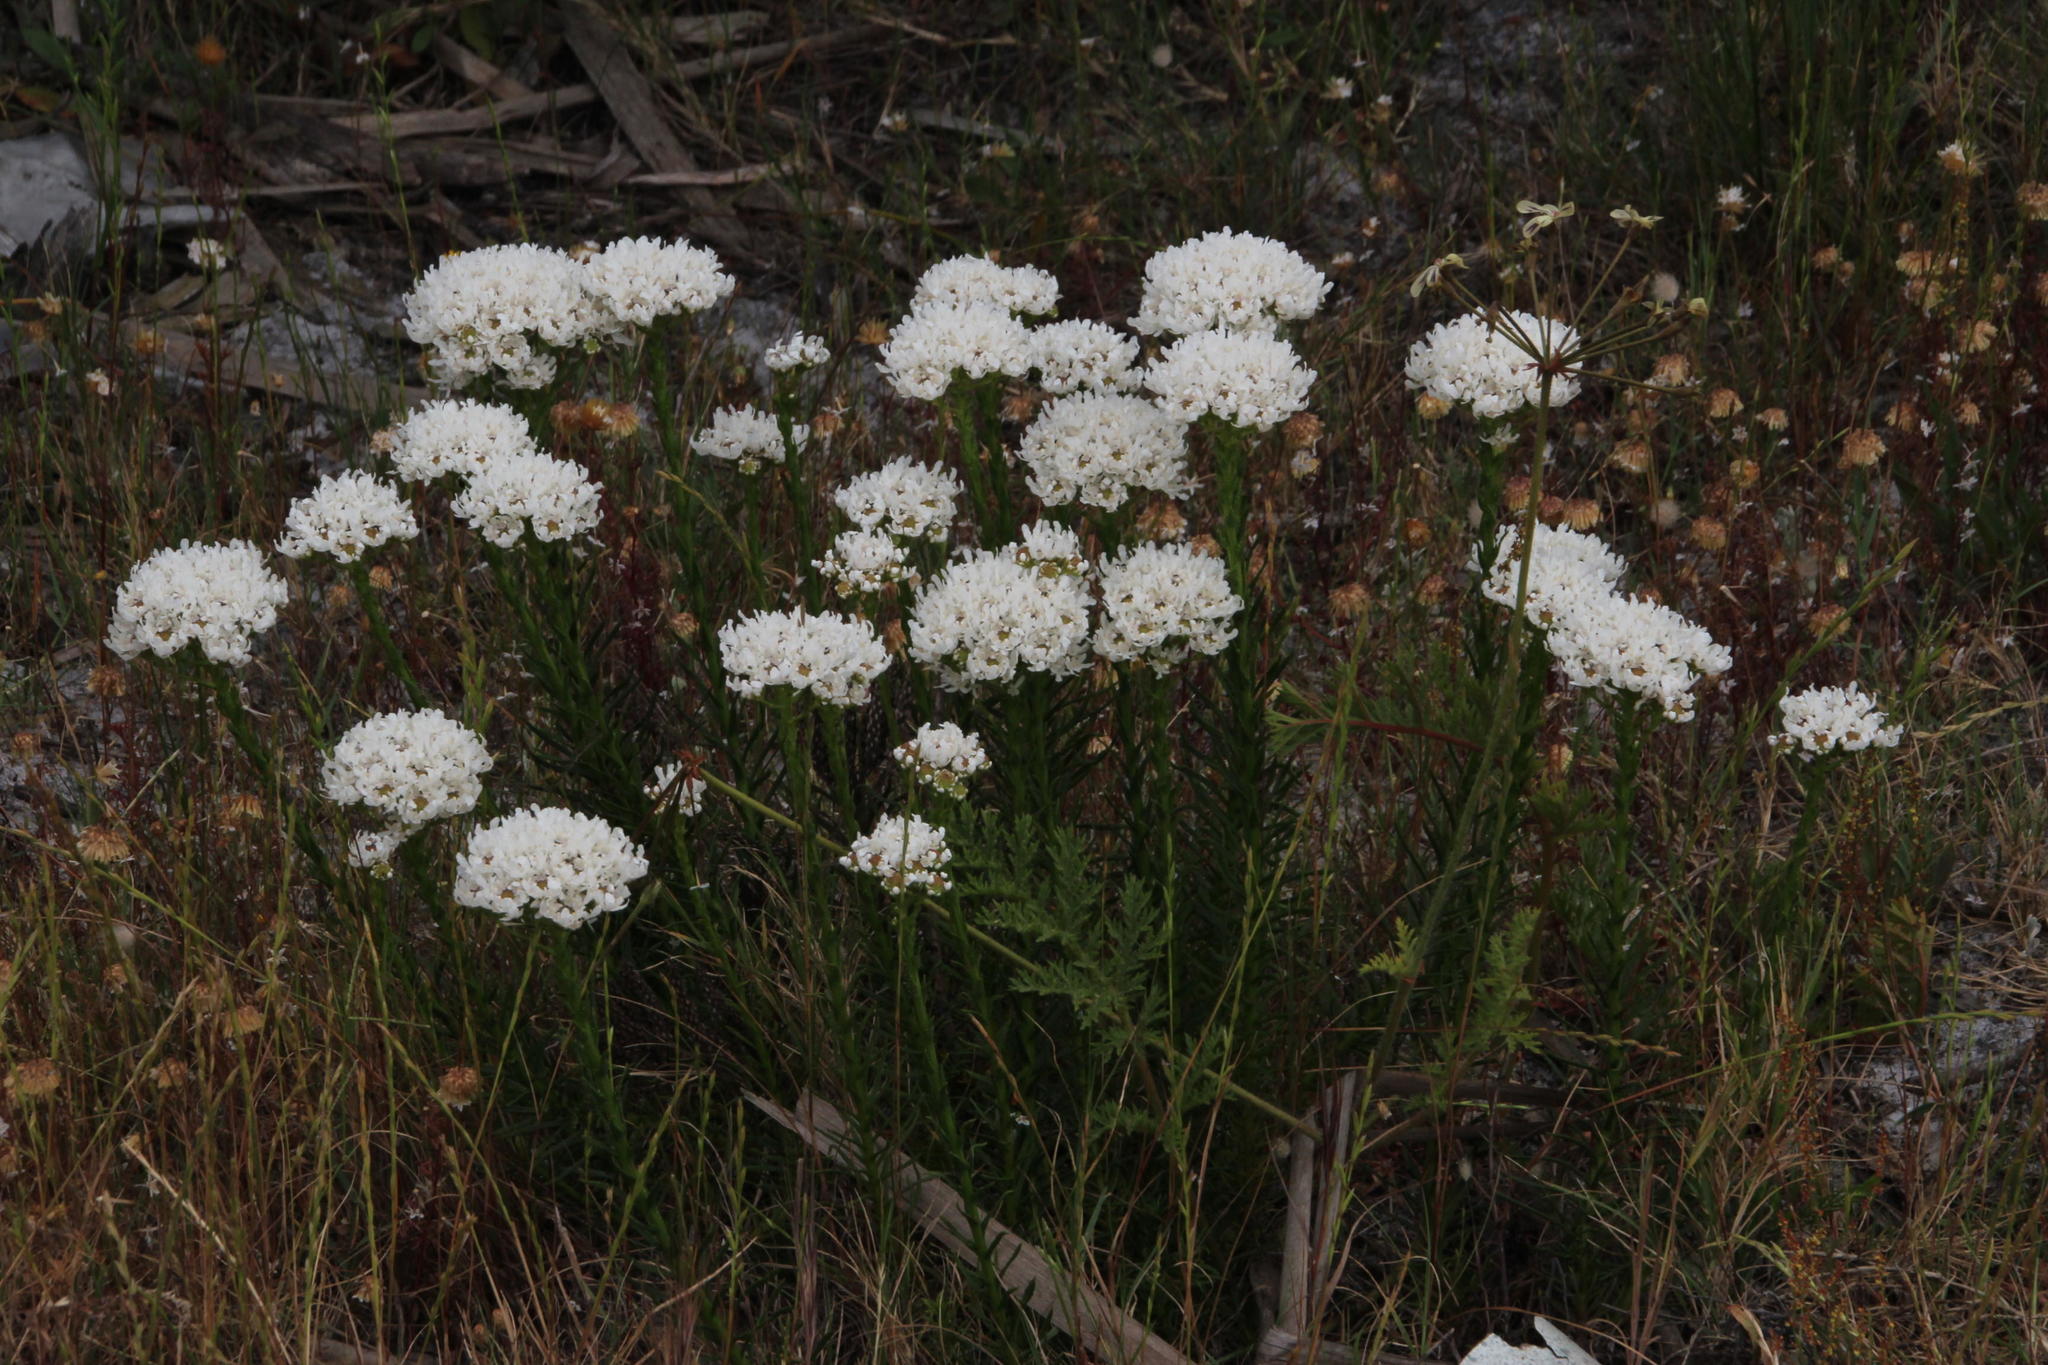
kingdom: Plantae
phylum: Tracheophyta
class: Magnoliopsida
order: Lamiales
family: Scrophulariaceae
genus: Pseudoselago
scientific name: Pseudoselago spuria
